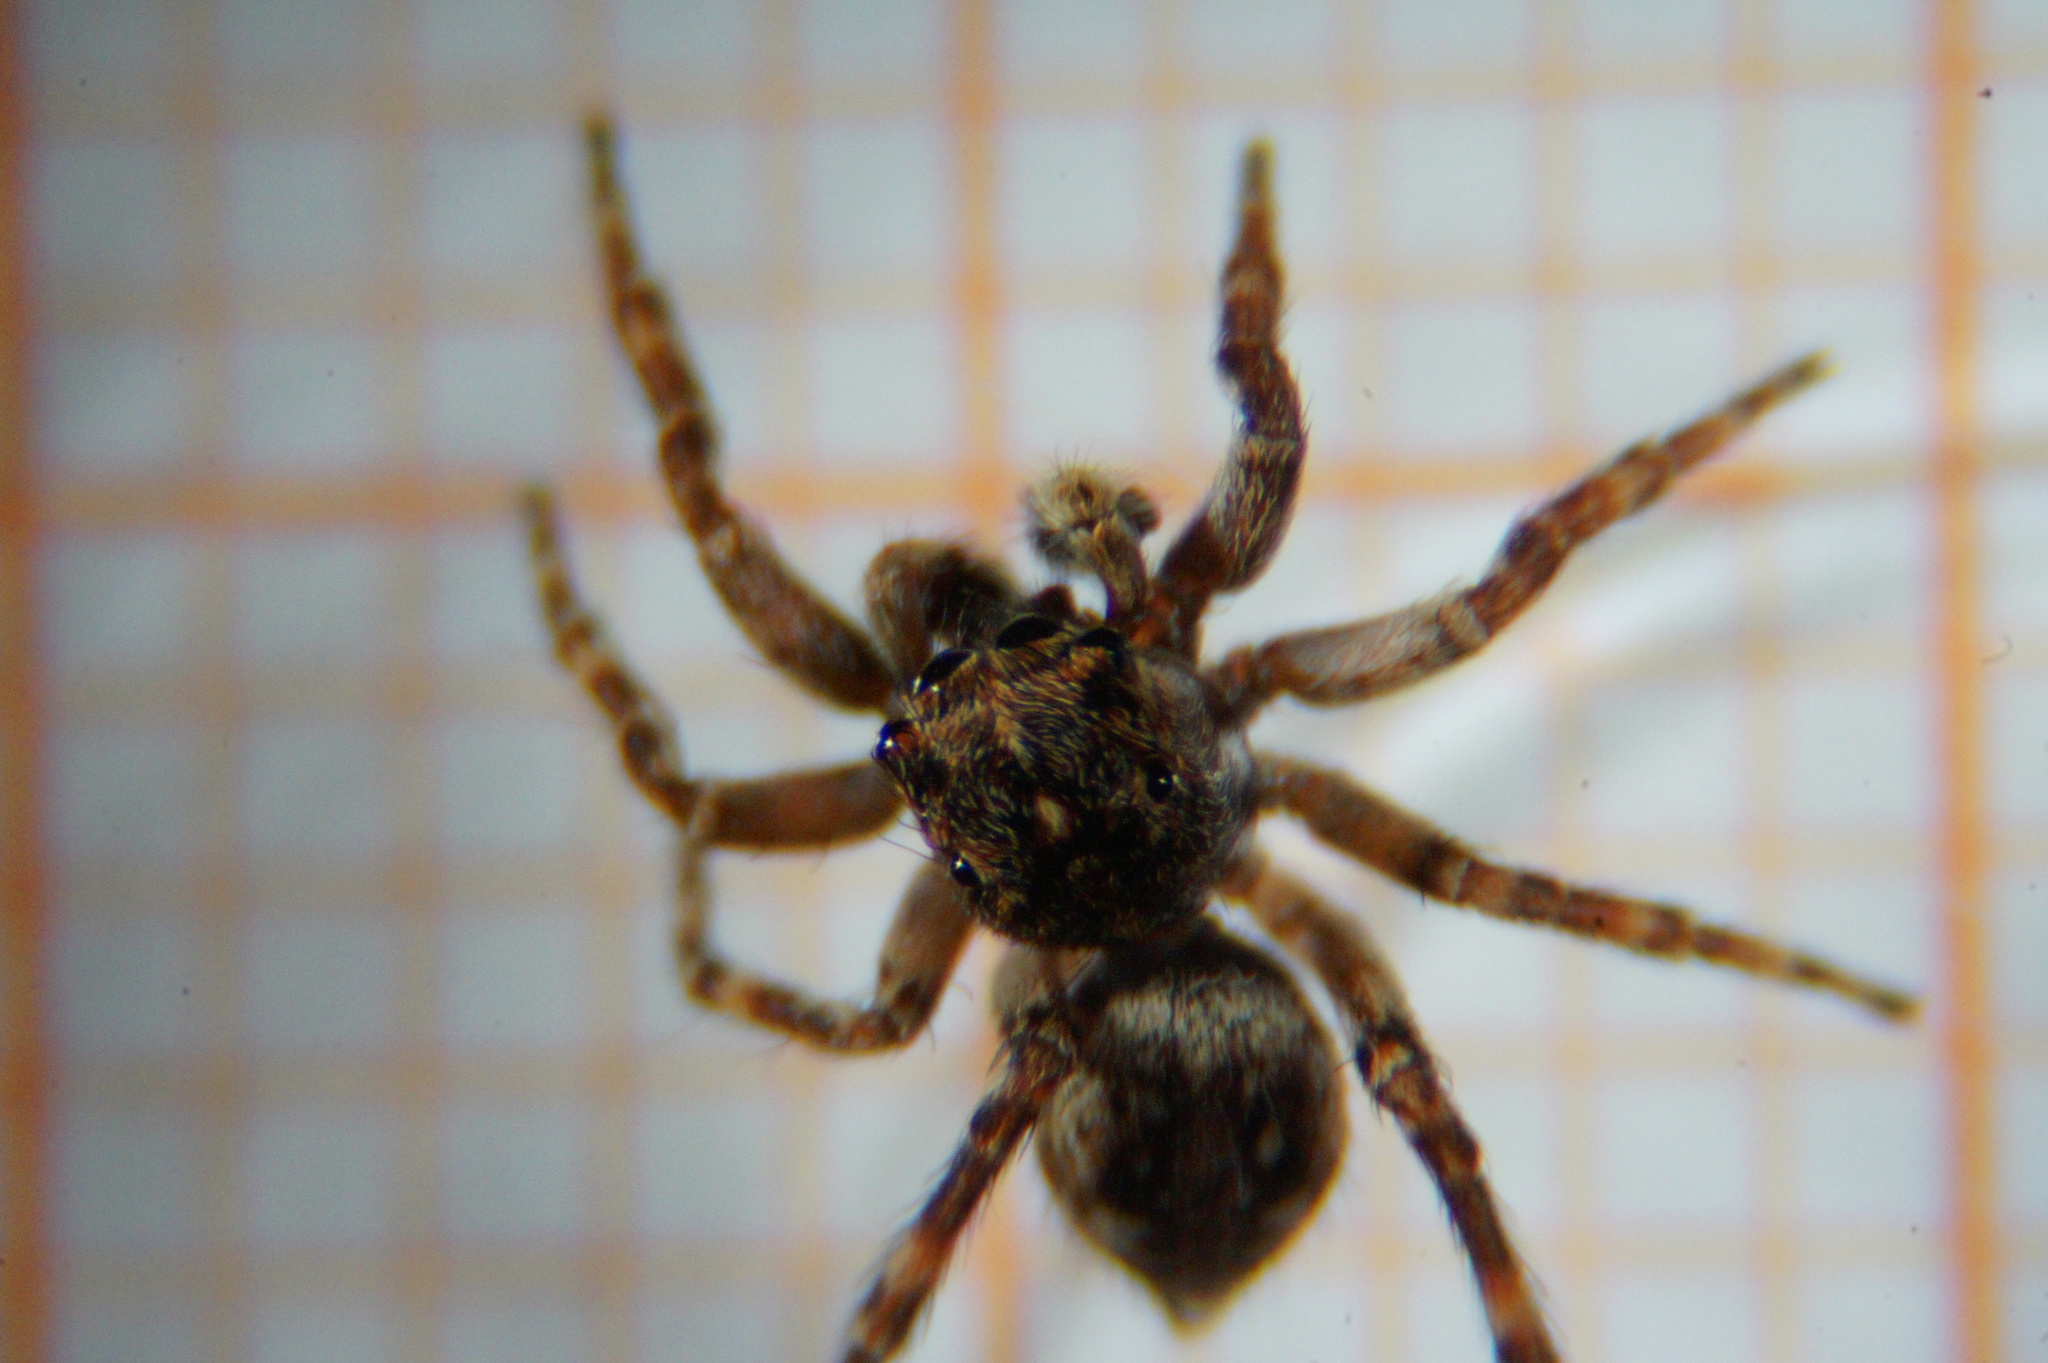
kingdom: Animalia
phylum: Arthropoda
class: Arachnida
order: Araneae
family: Salticidae
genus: Attulus
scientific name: Attulus pubescens
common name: Jumping spider
